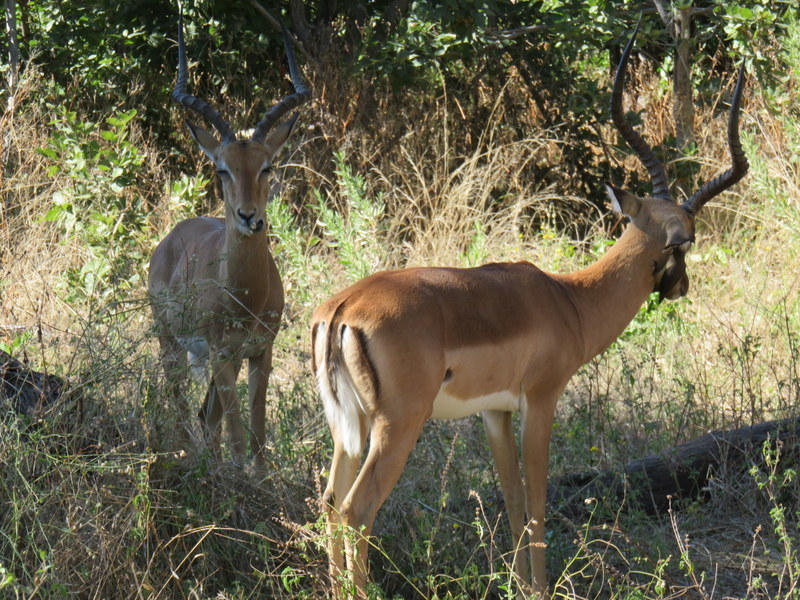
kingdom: Animalia
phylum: Chordata
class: Mammalia
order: Artiodactyla
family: Bovidae
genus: Aepyceros
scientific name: Aepyceros melampus
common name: Impala
